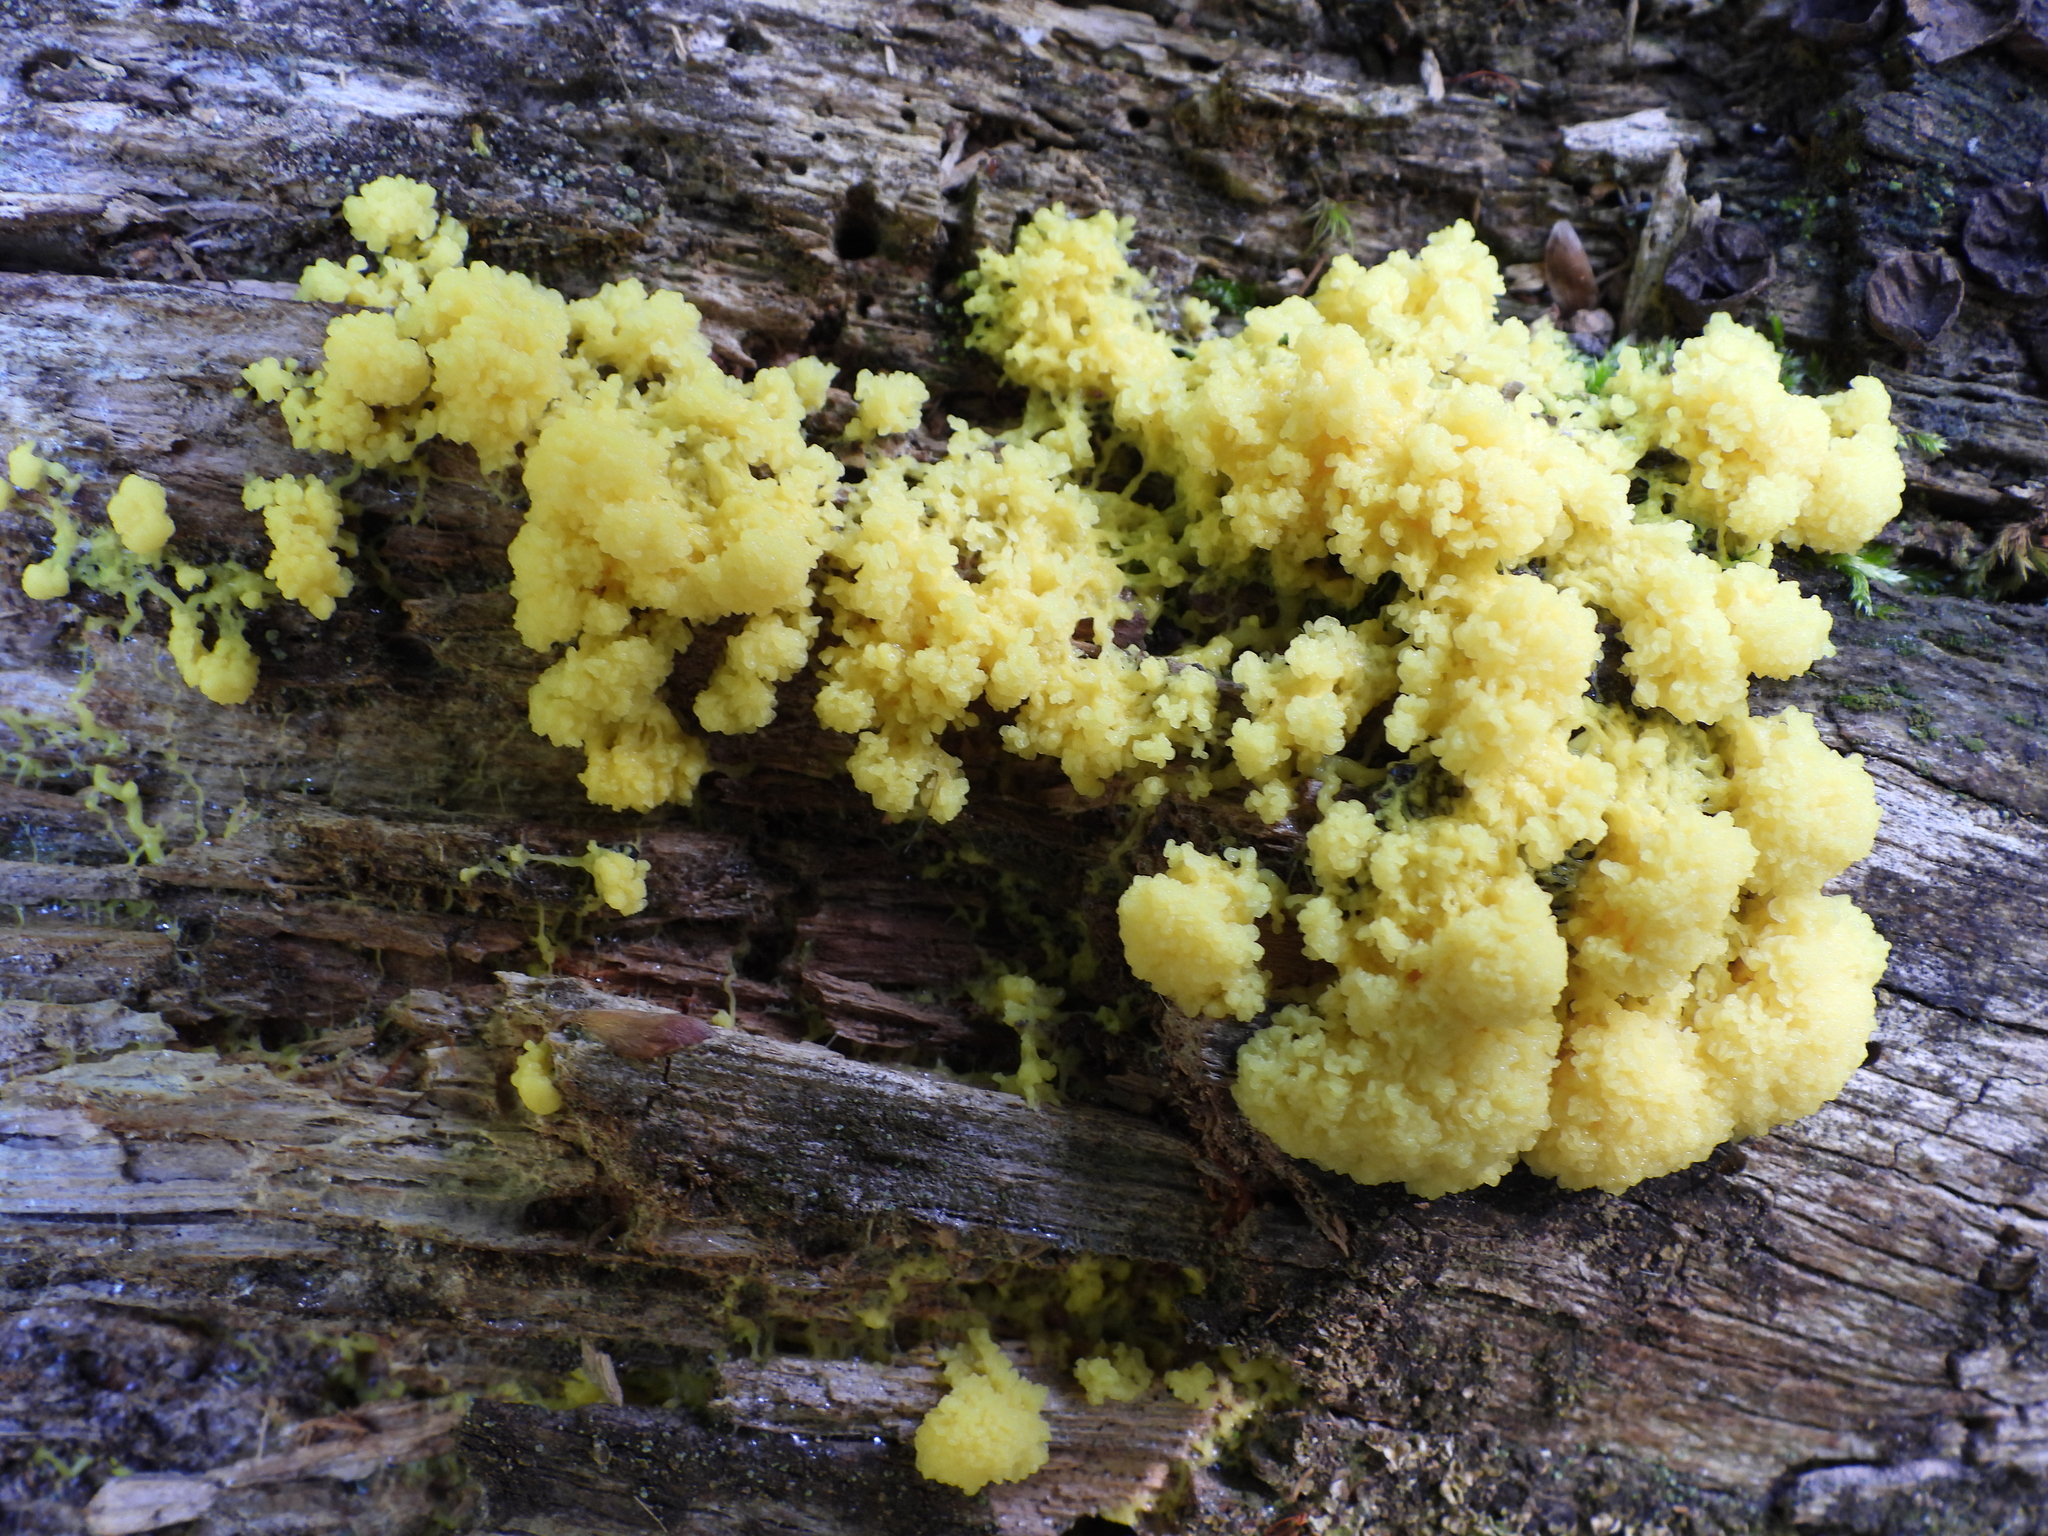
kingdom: Protozoa
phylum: Mycetozoa
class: Myxomycetes
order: Physarales
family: Physaraceae
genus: Fuligo
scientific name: Fuligo septica
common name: Dog vomit slime mold
